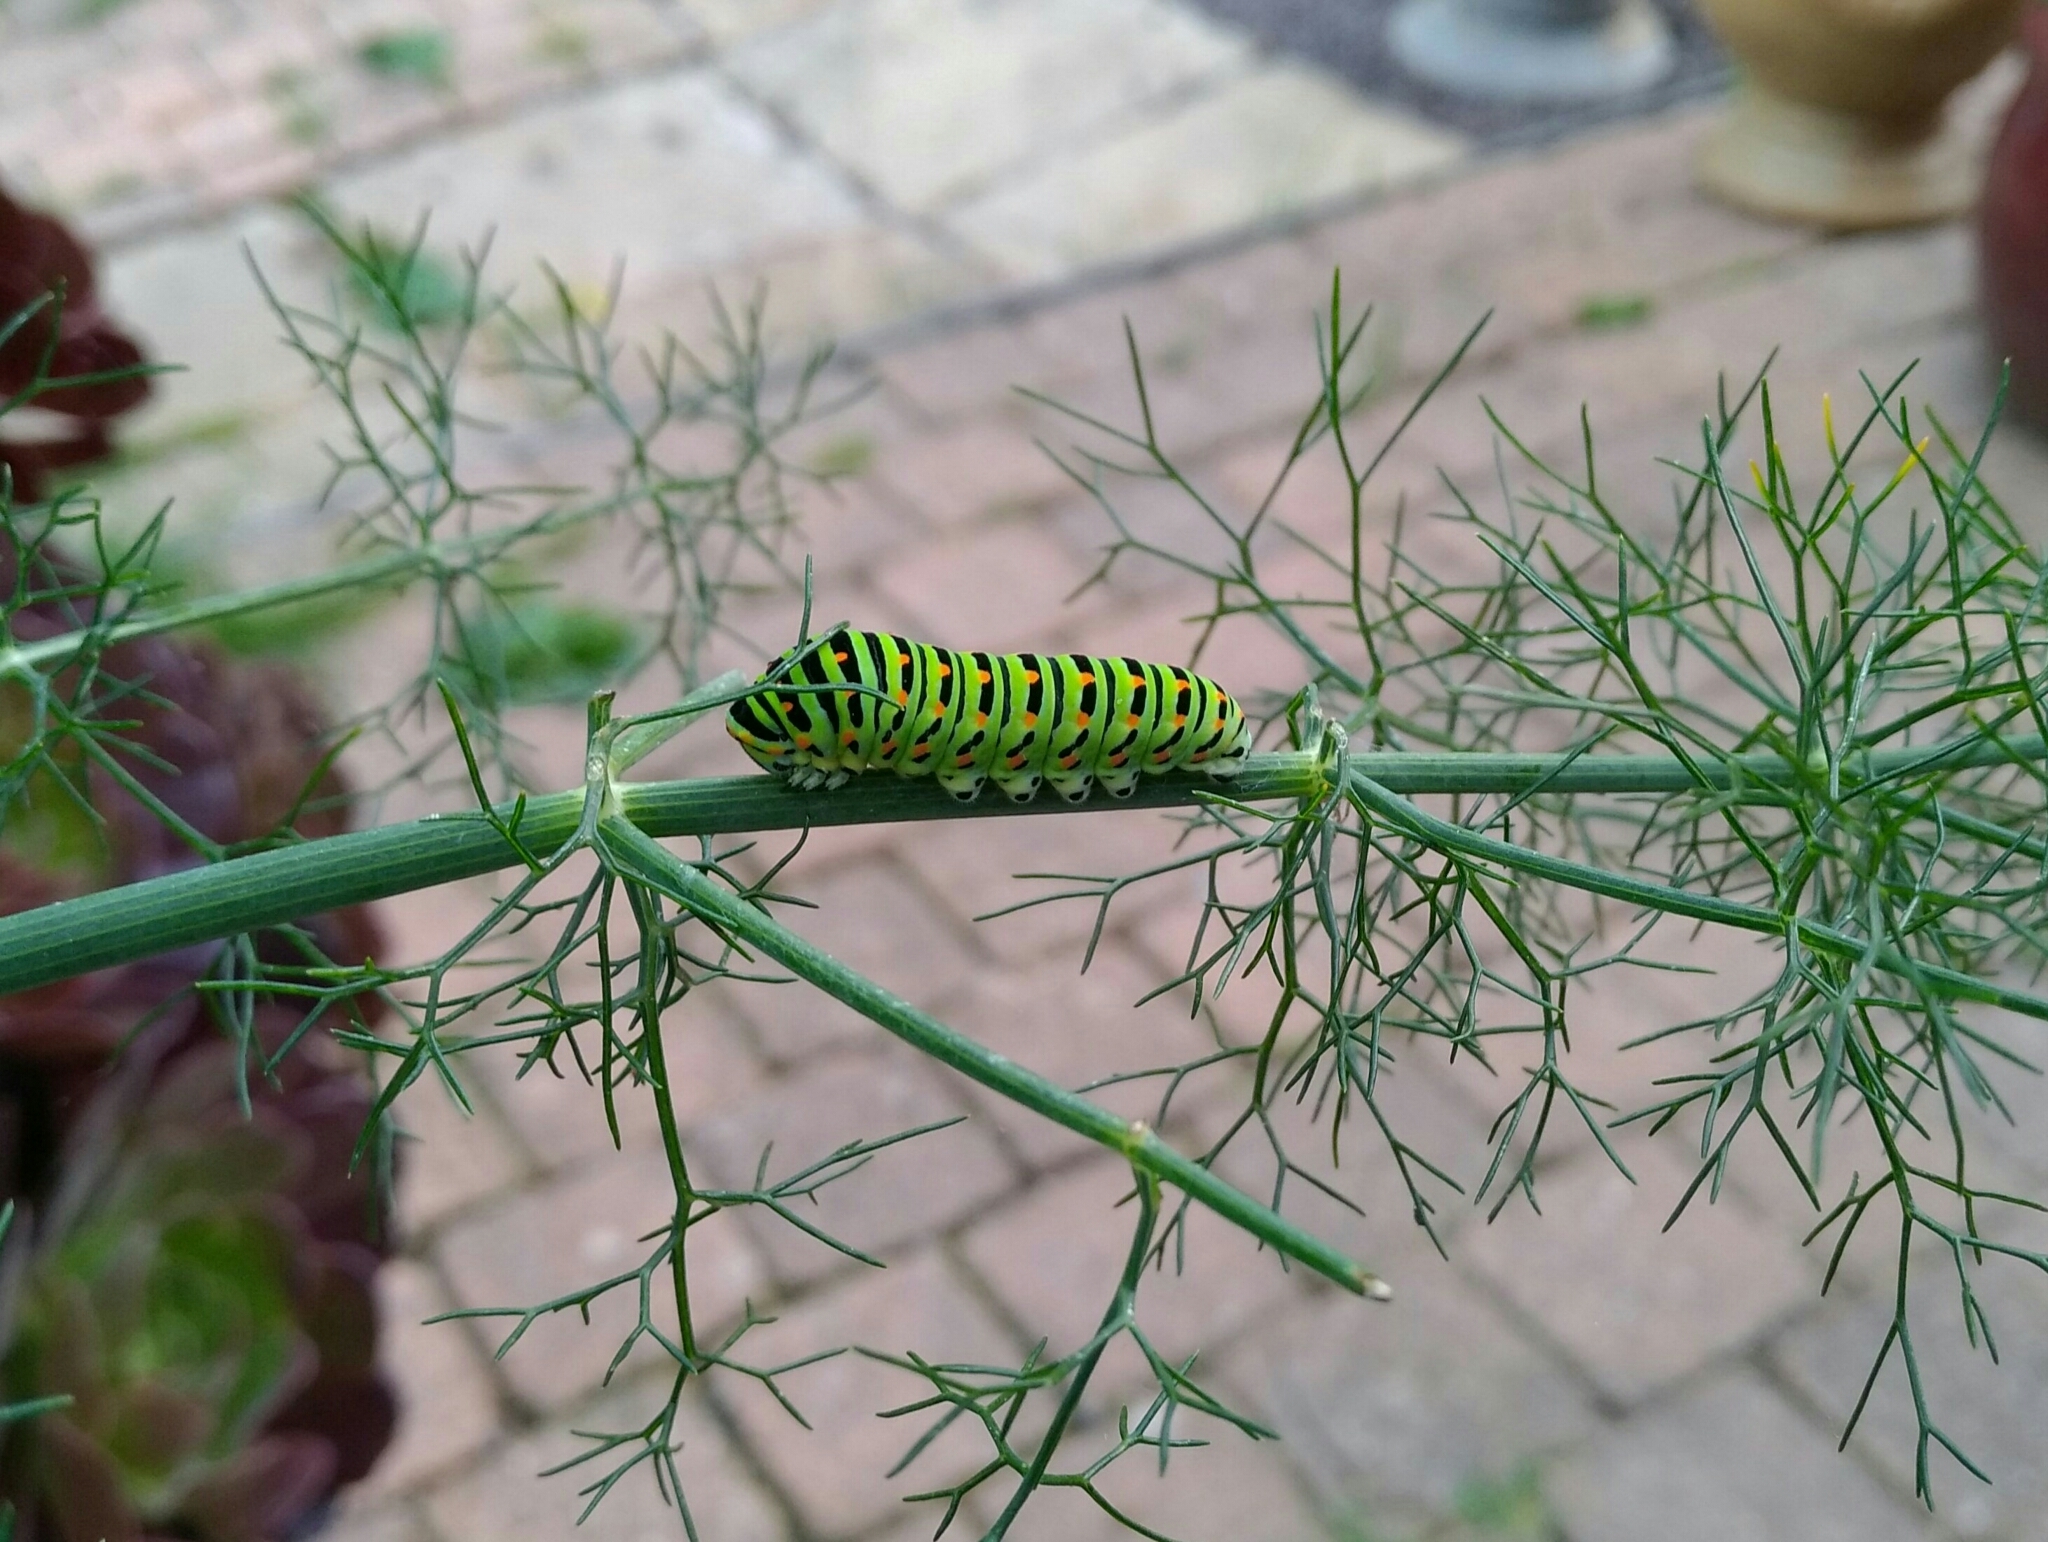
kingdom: Animalia
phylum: Arthropoda
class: Insecta
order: Lepidoptera
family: Papilionidae
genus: Papilio
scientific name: Papilio machaon
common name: Swallowtail
